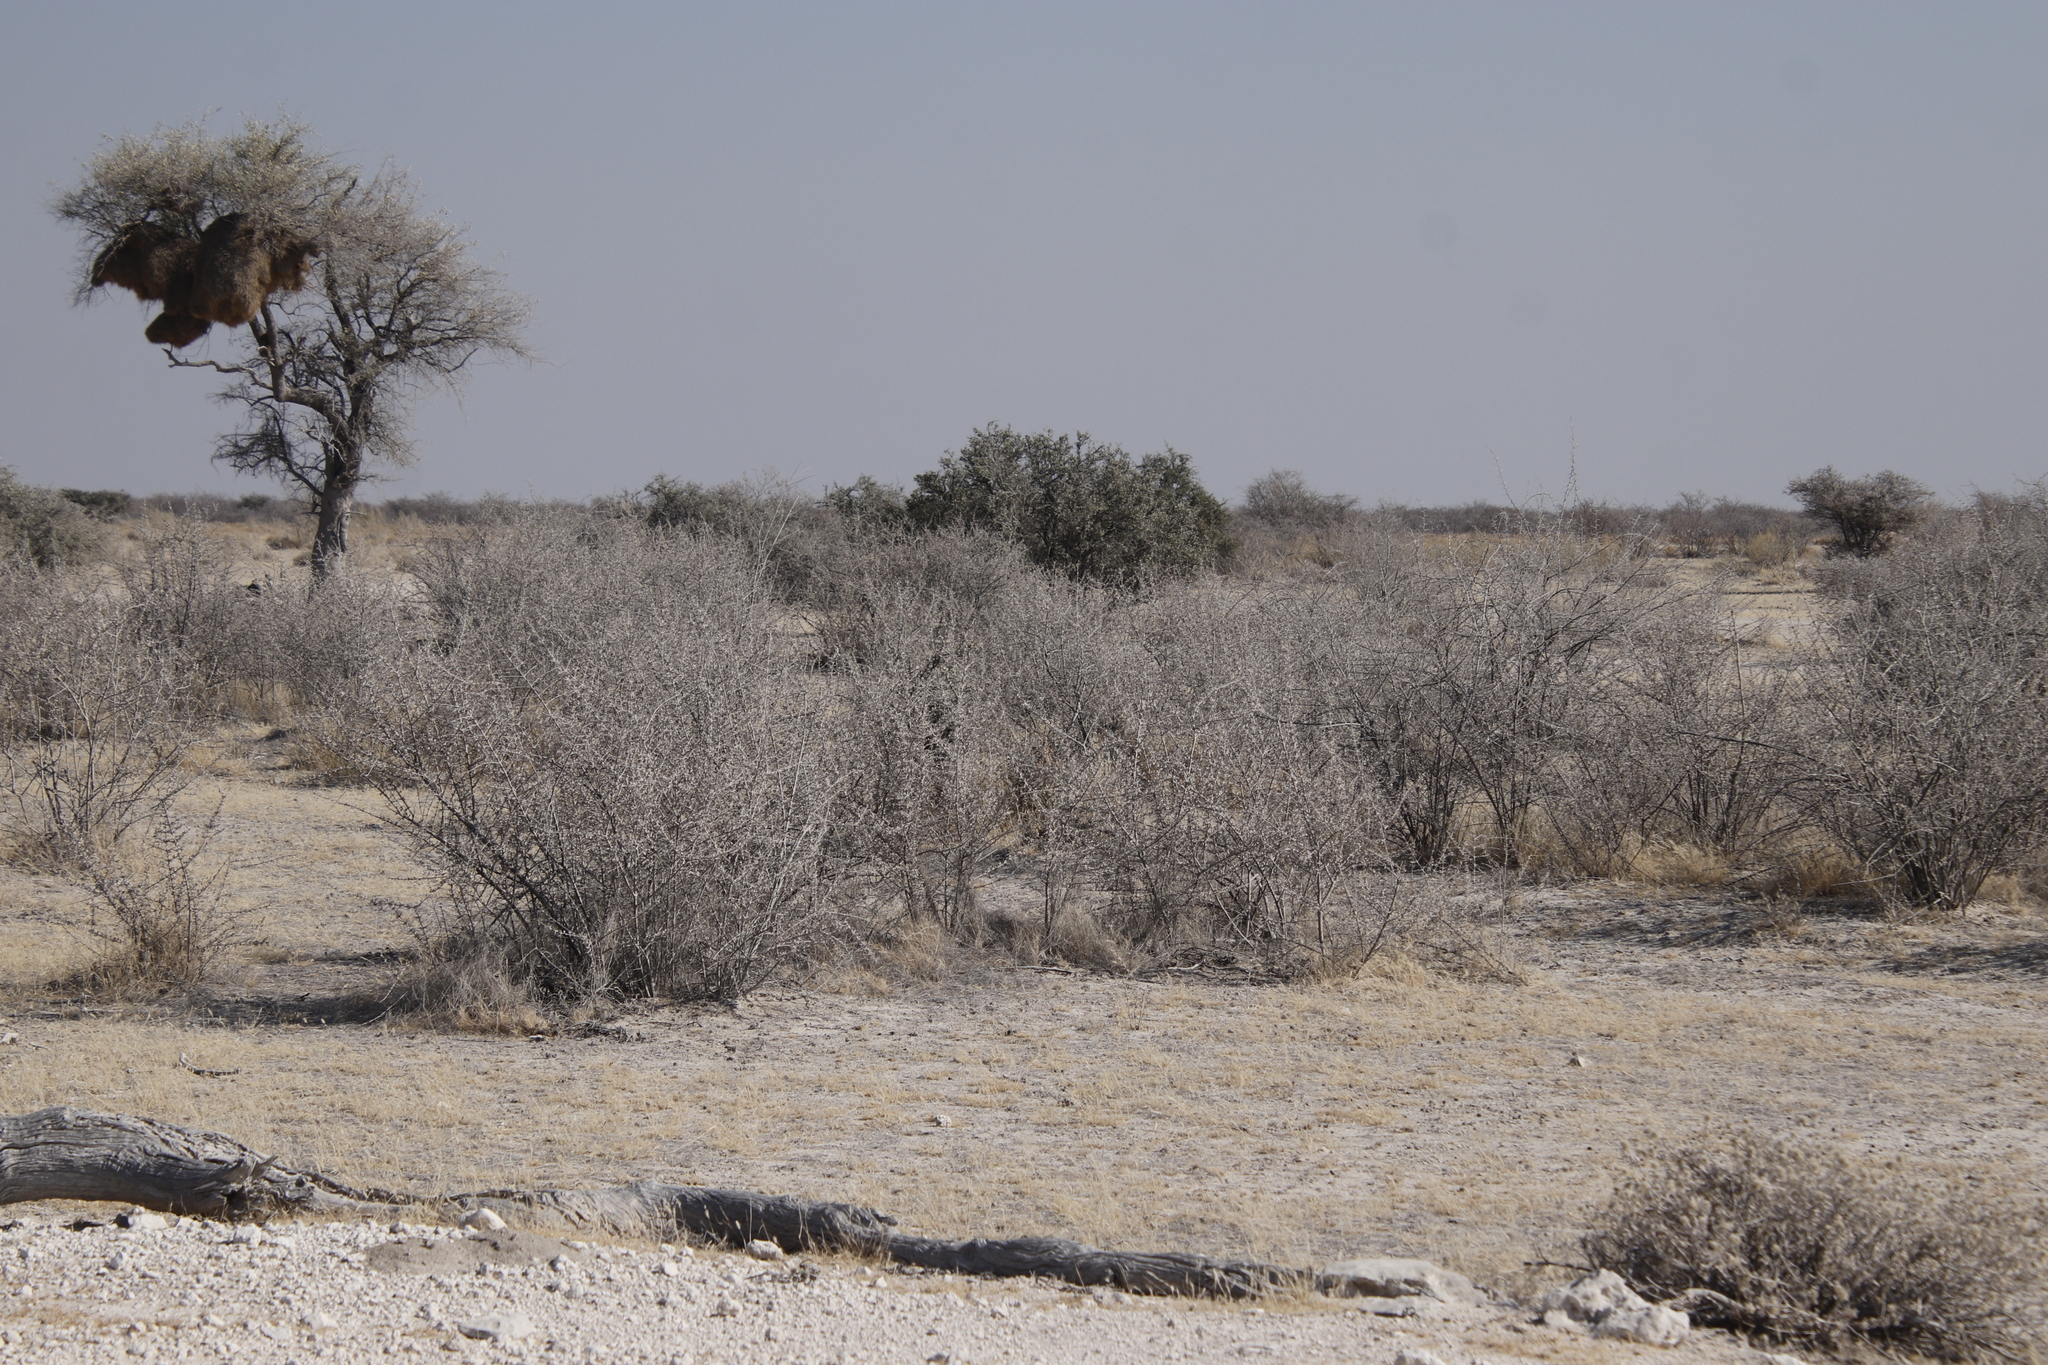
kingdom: Plantae
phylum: Tracheophyta
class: Magnoliopsida
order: Lamiales
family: Bignoniaceae
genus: Catophractes
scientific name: Catophractes alexandri
